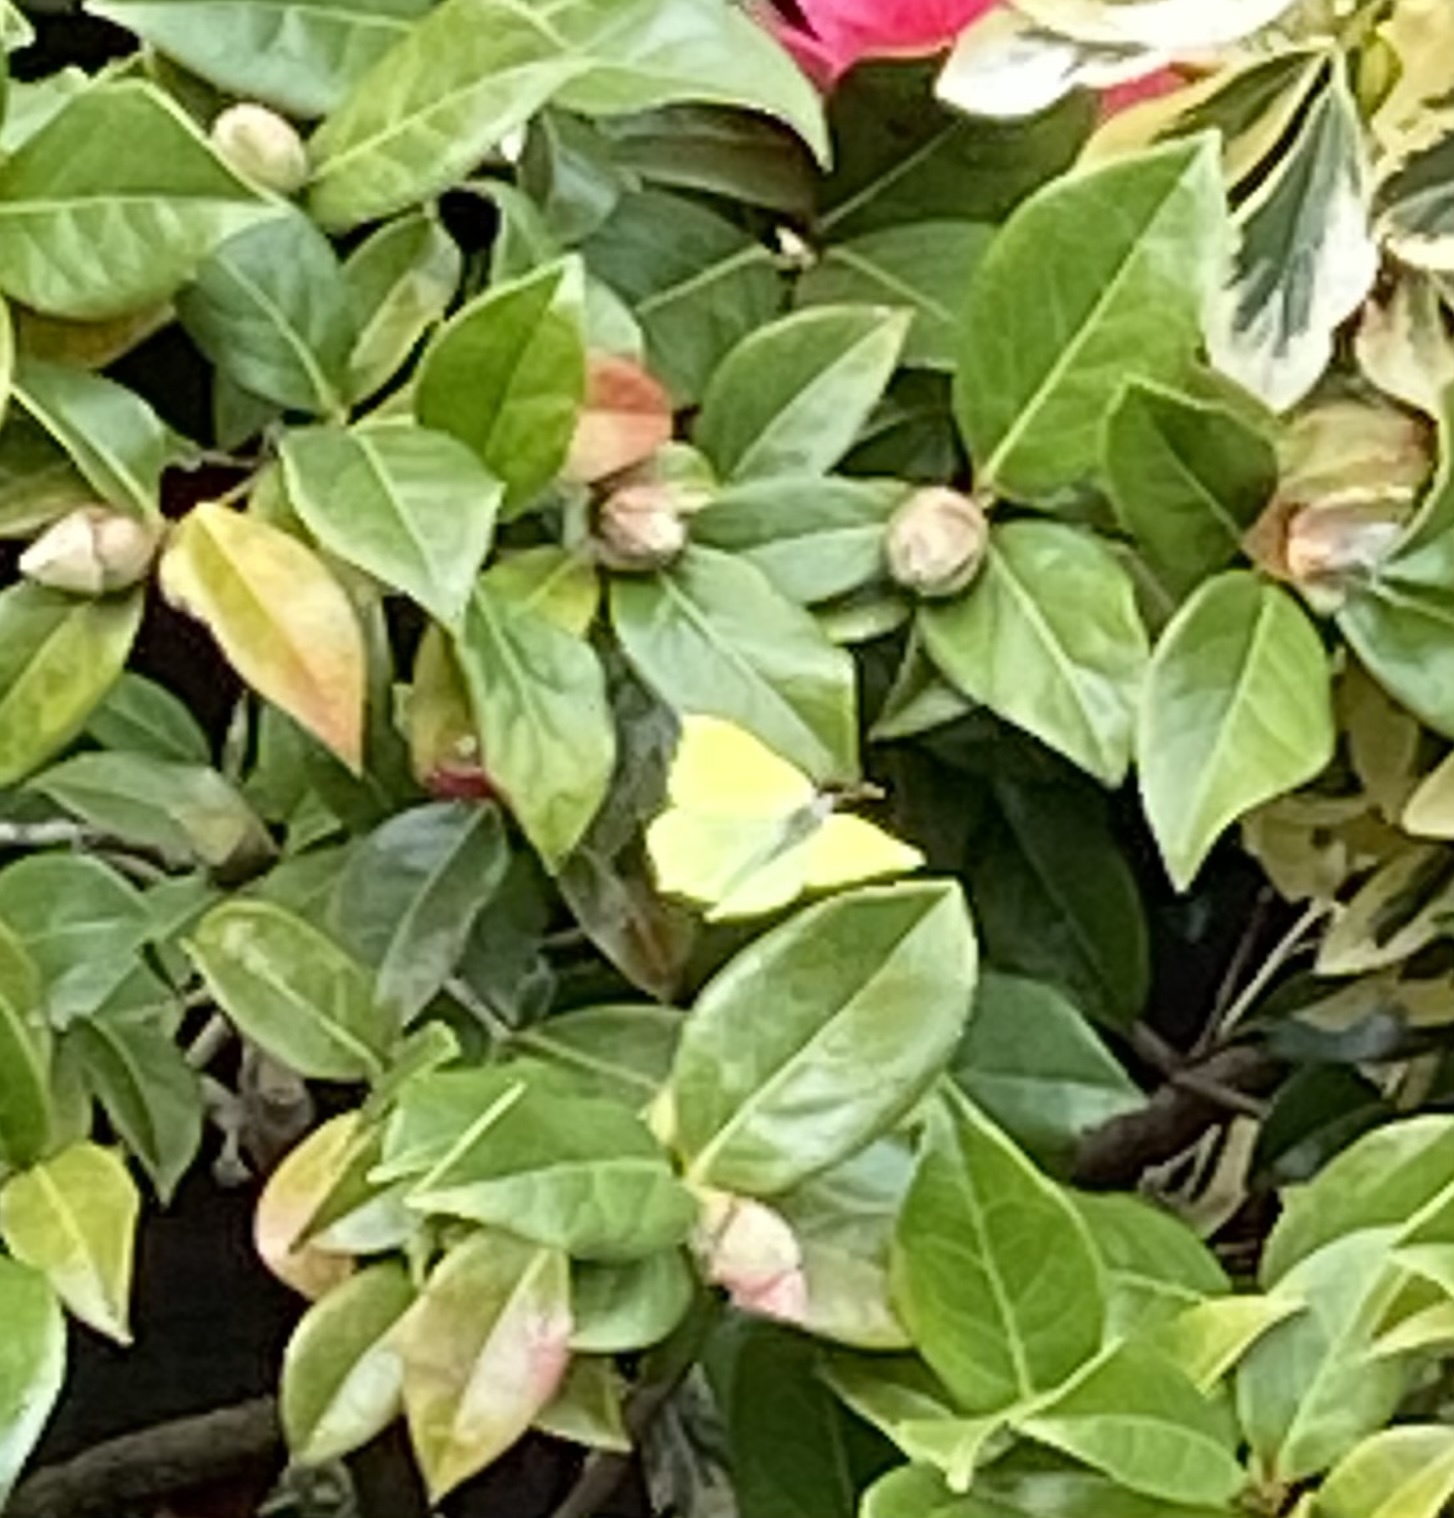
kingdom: Animalia
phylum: Arthropoda
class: Insecta
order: Lepidoptera
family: Pieridae
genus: Gonepteryx
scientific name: Gonepteryx rhamni
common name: Brimstone
